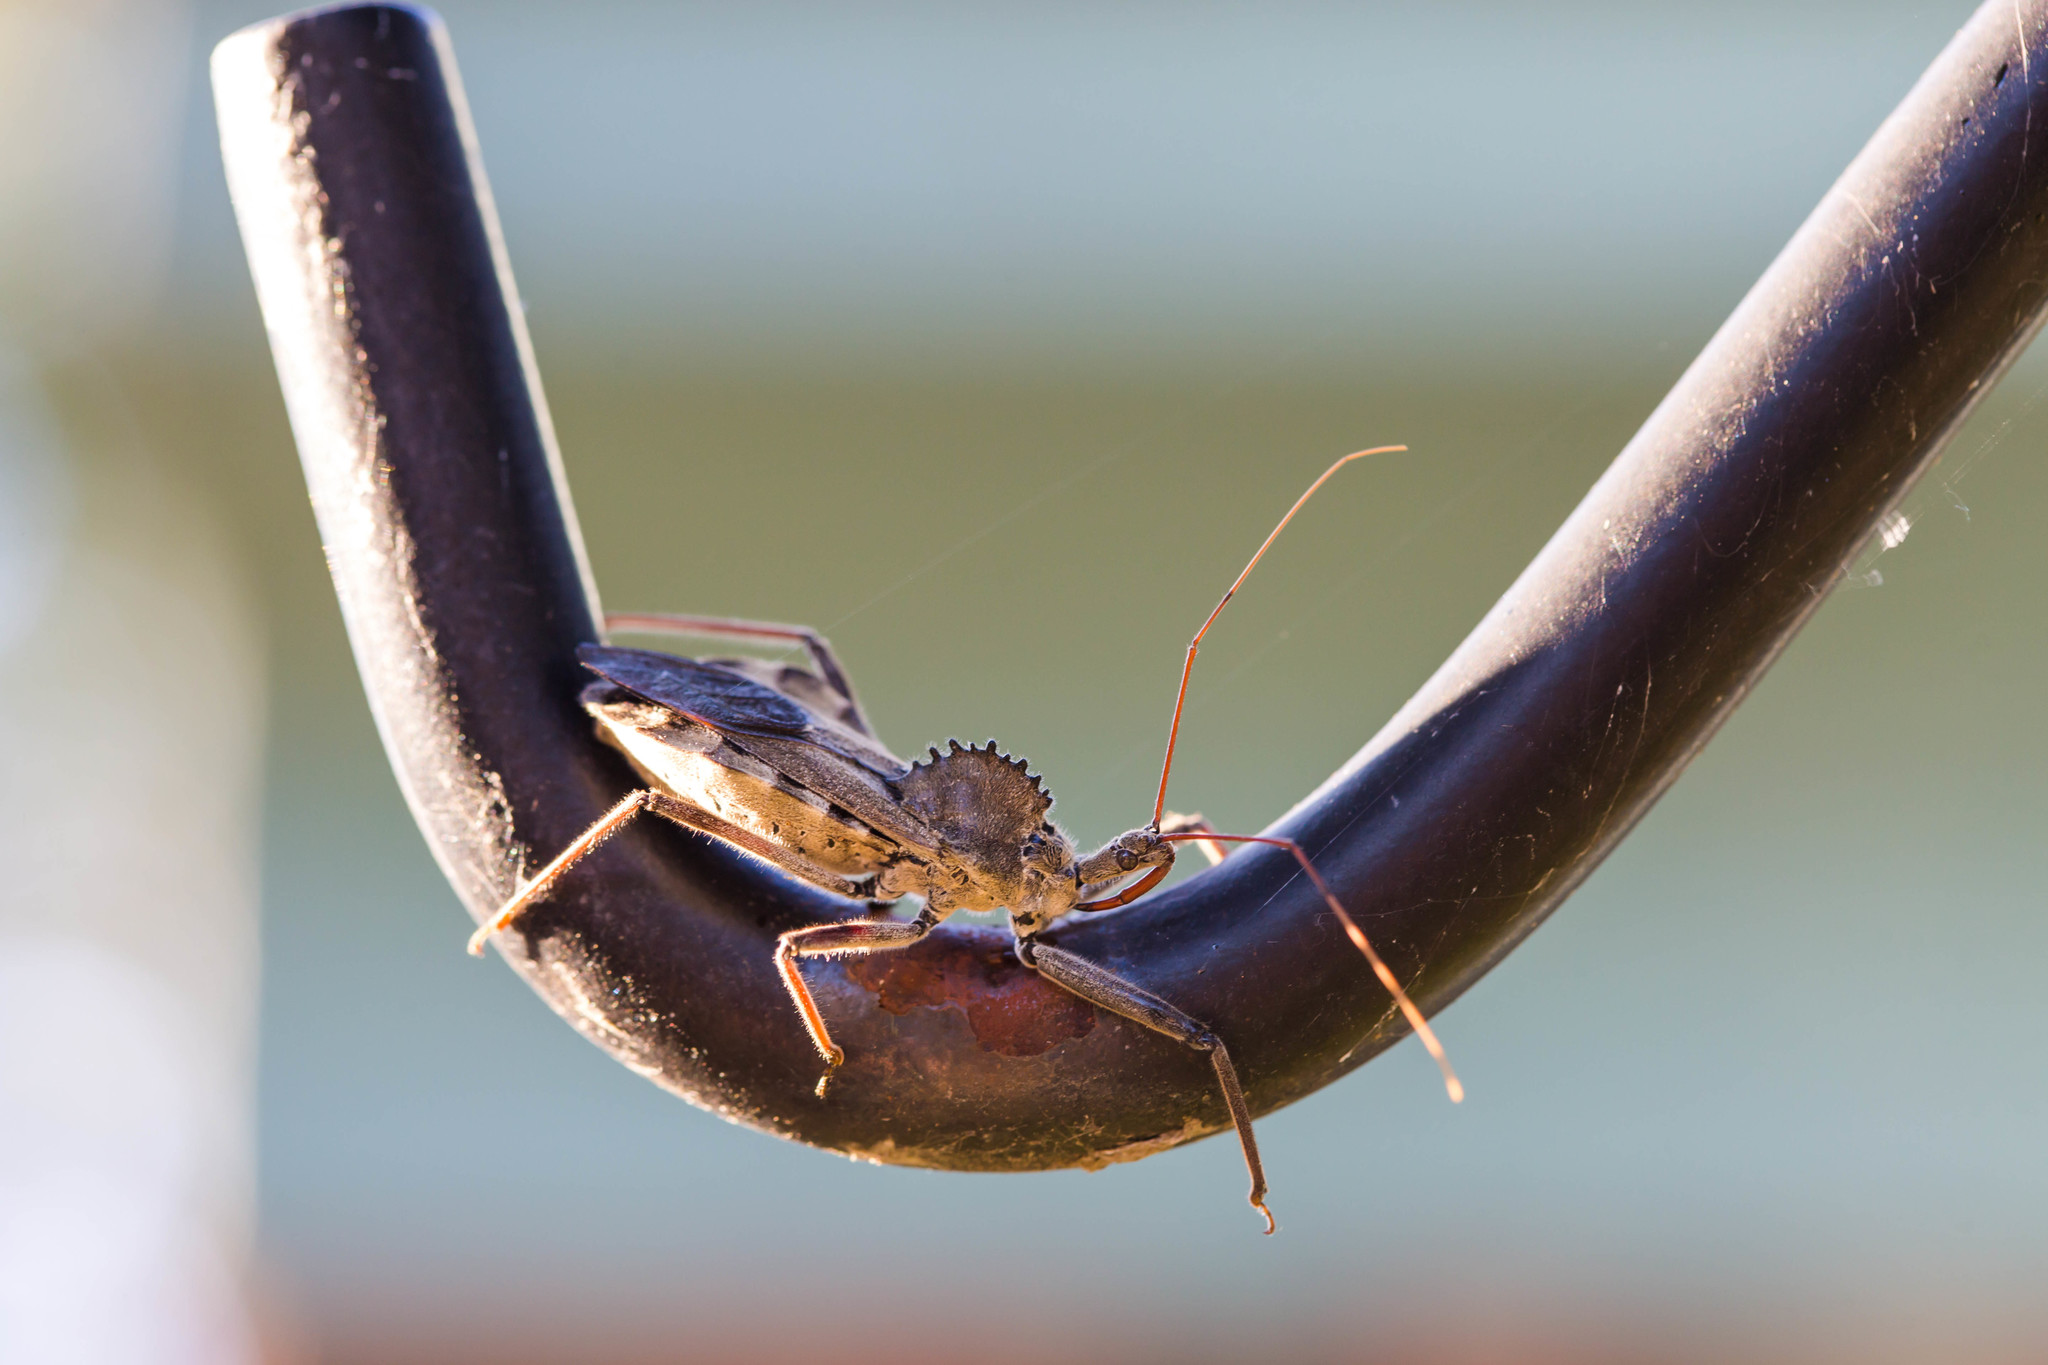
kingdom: Animalia
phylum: Arthropoda
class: Insecta
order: Hemiptera
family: Reduviidae
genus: Arilus
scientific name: Arilus cristatus
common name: North american wheel bug
